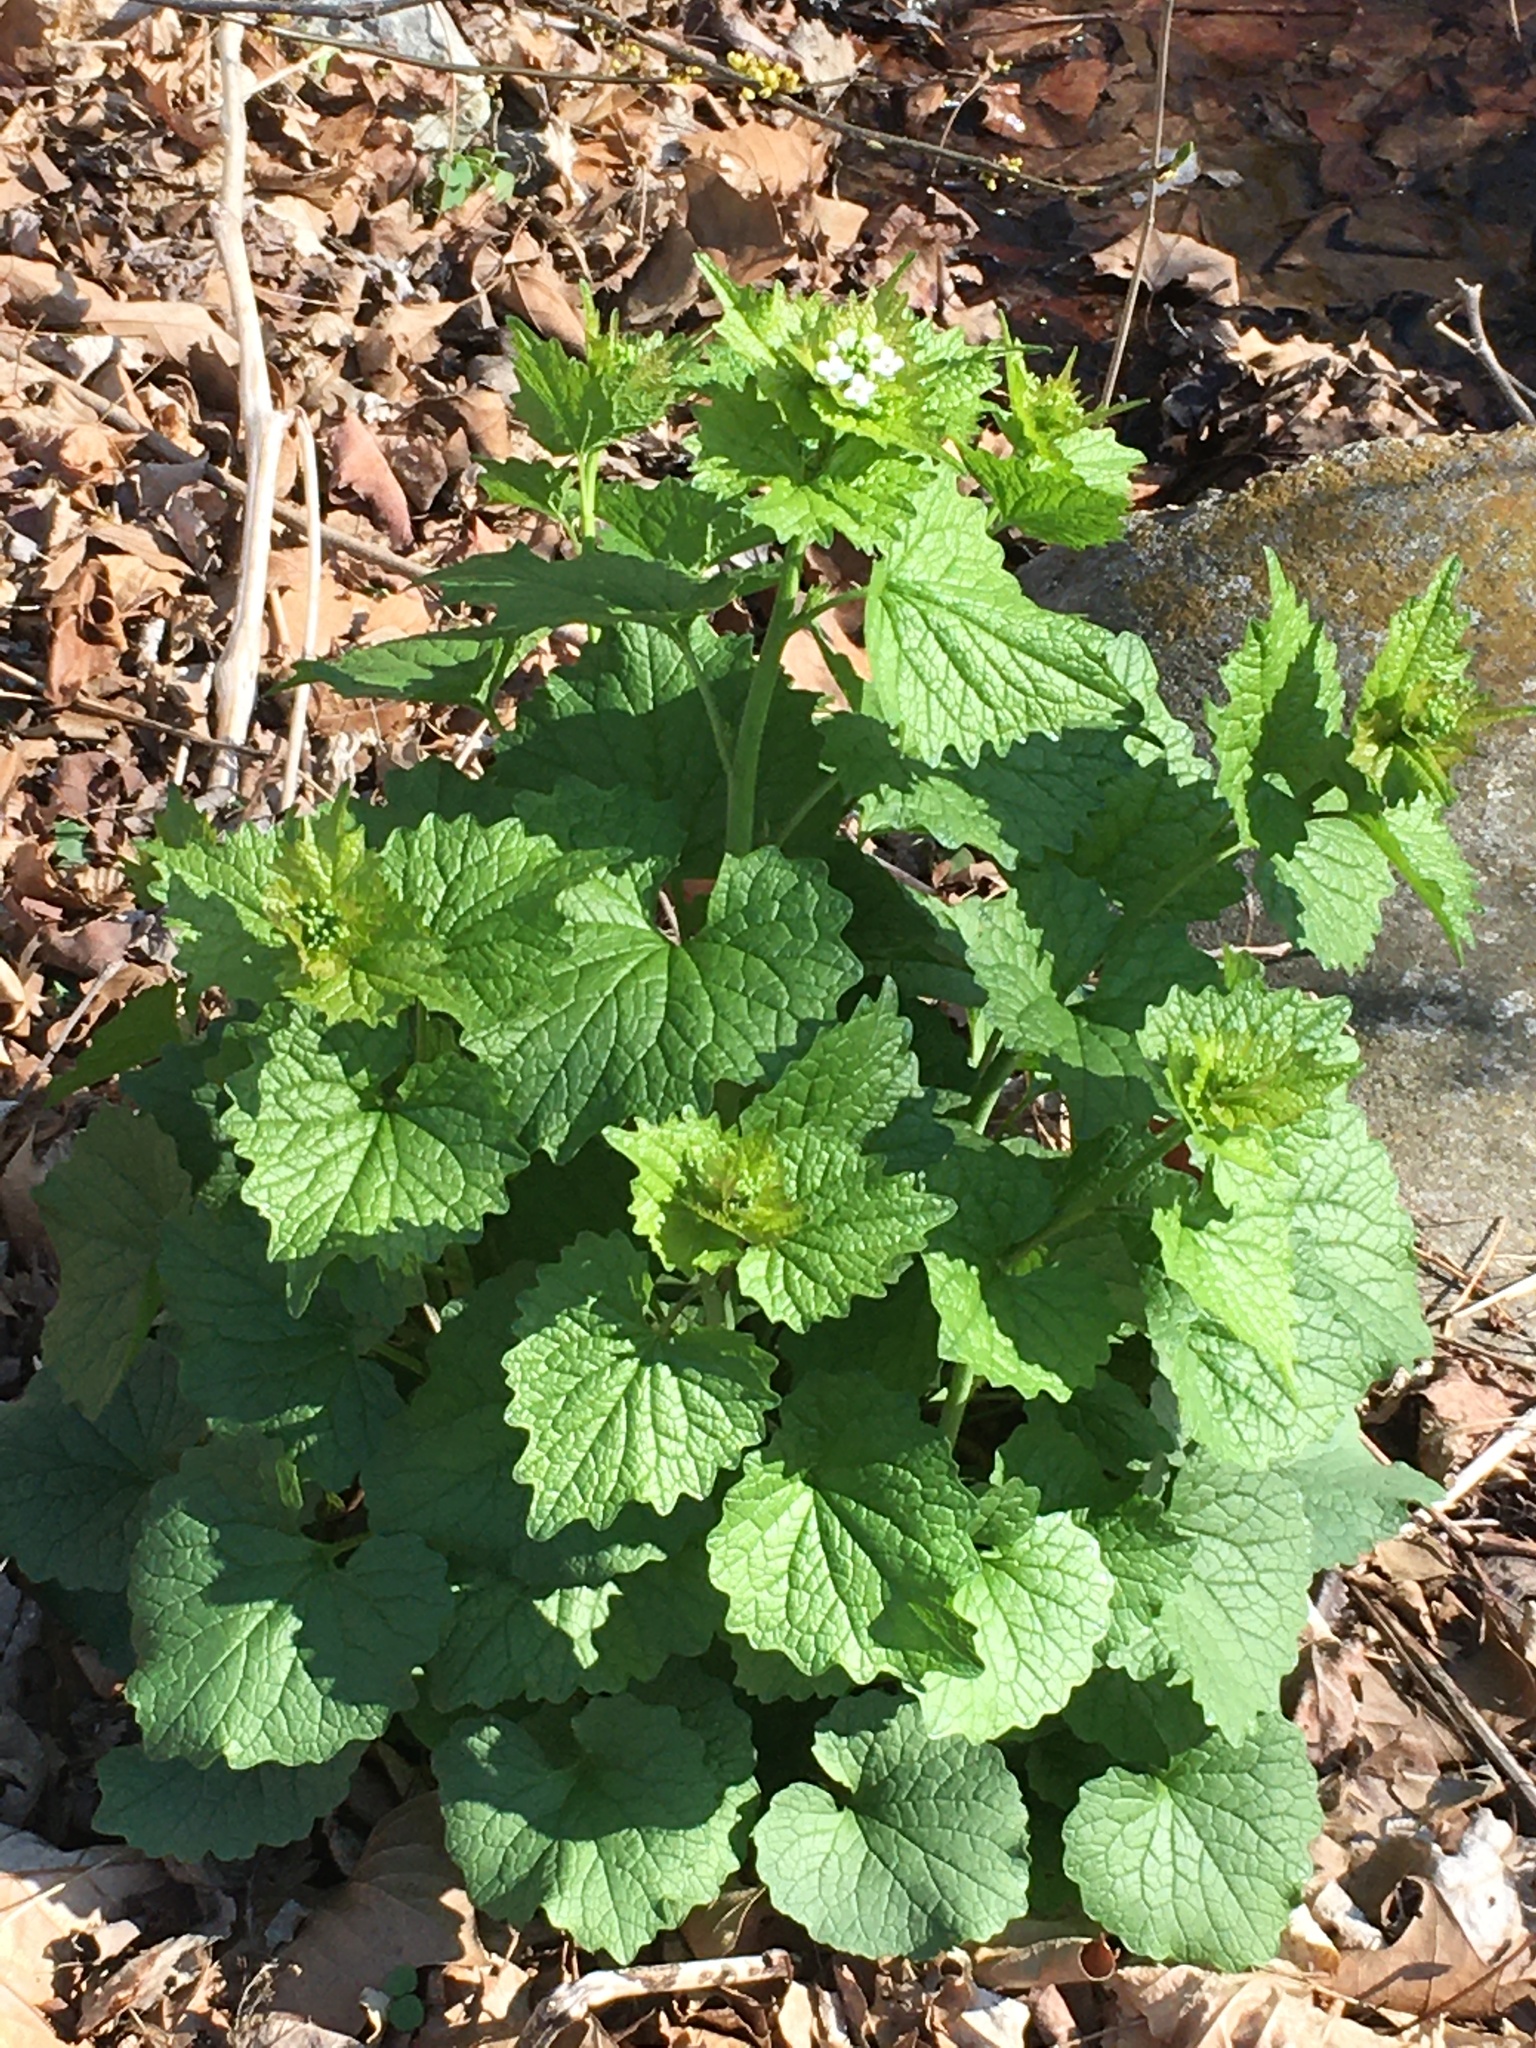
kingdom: Plantae
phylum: Tracheophyta
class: Magnoliopsida
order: Brassicales
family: Brassicaceae
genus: Alliaria
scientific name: Alliaria petiolata
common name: Garlic mustard
